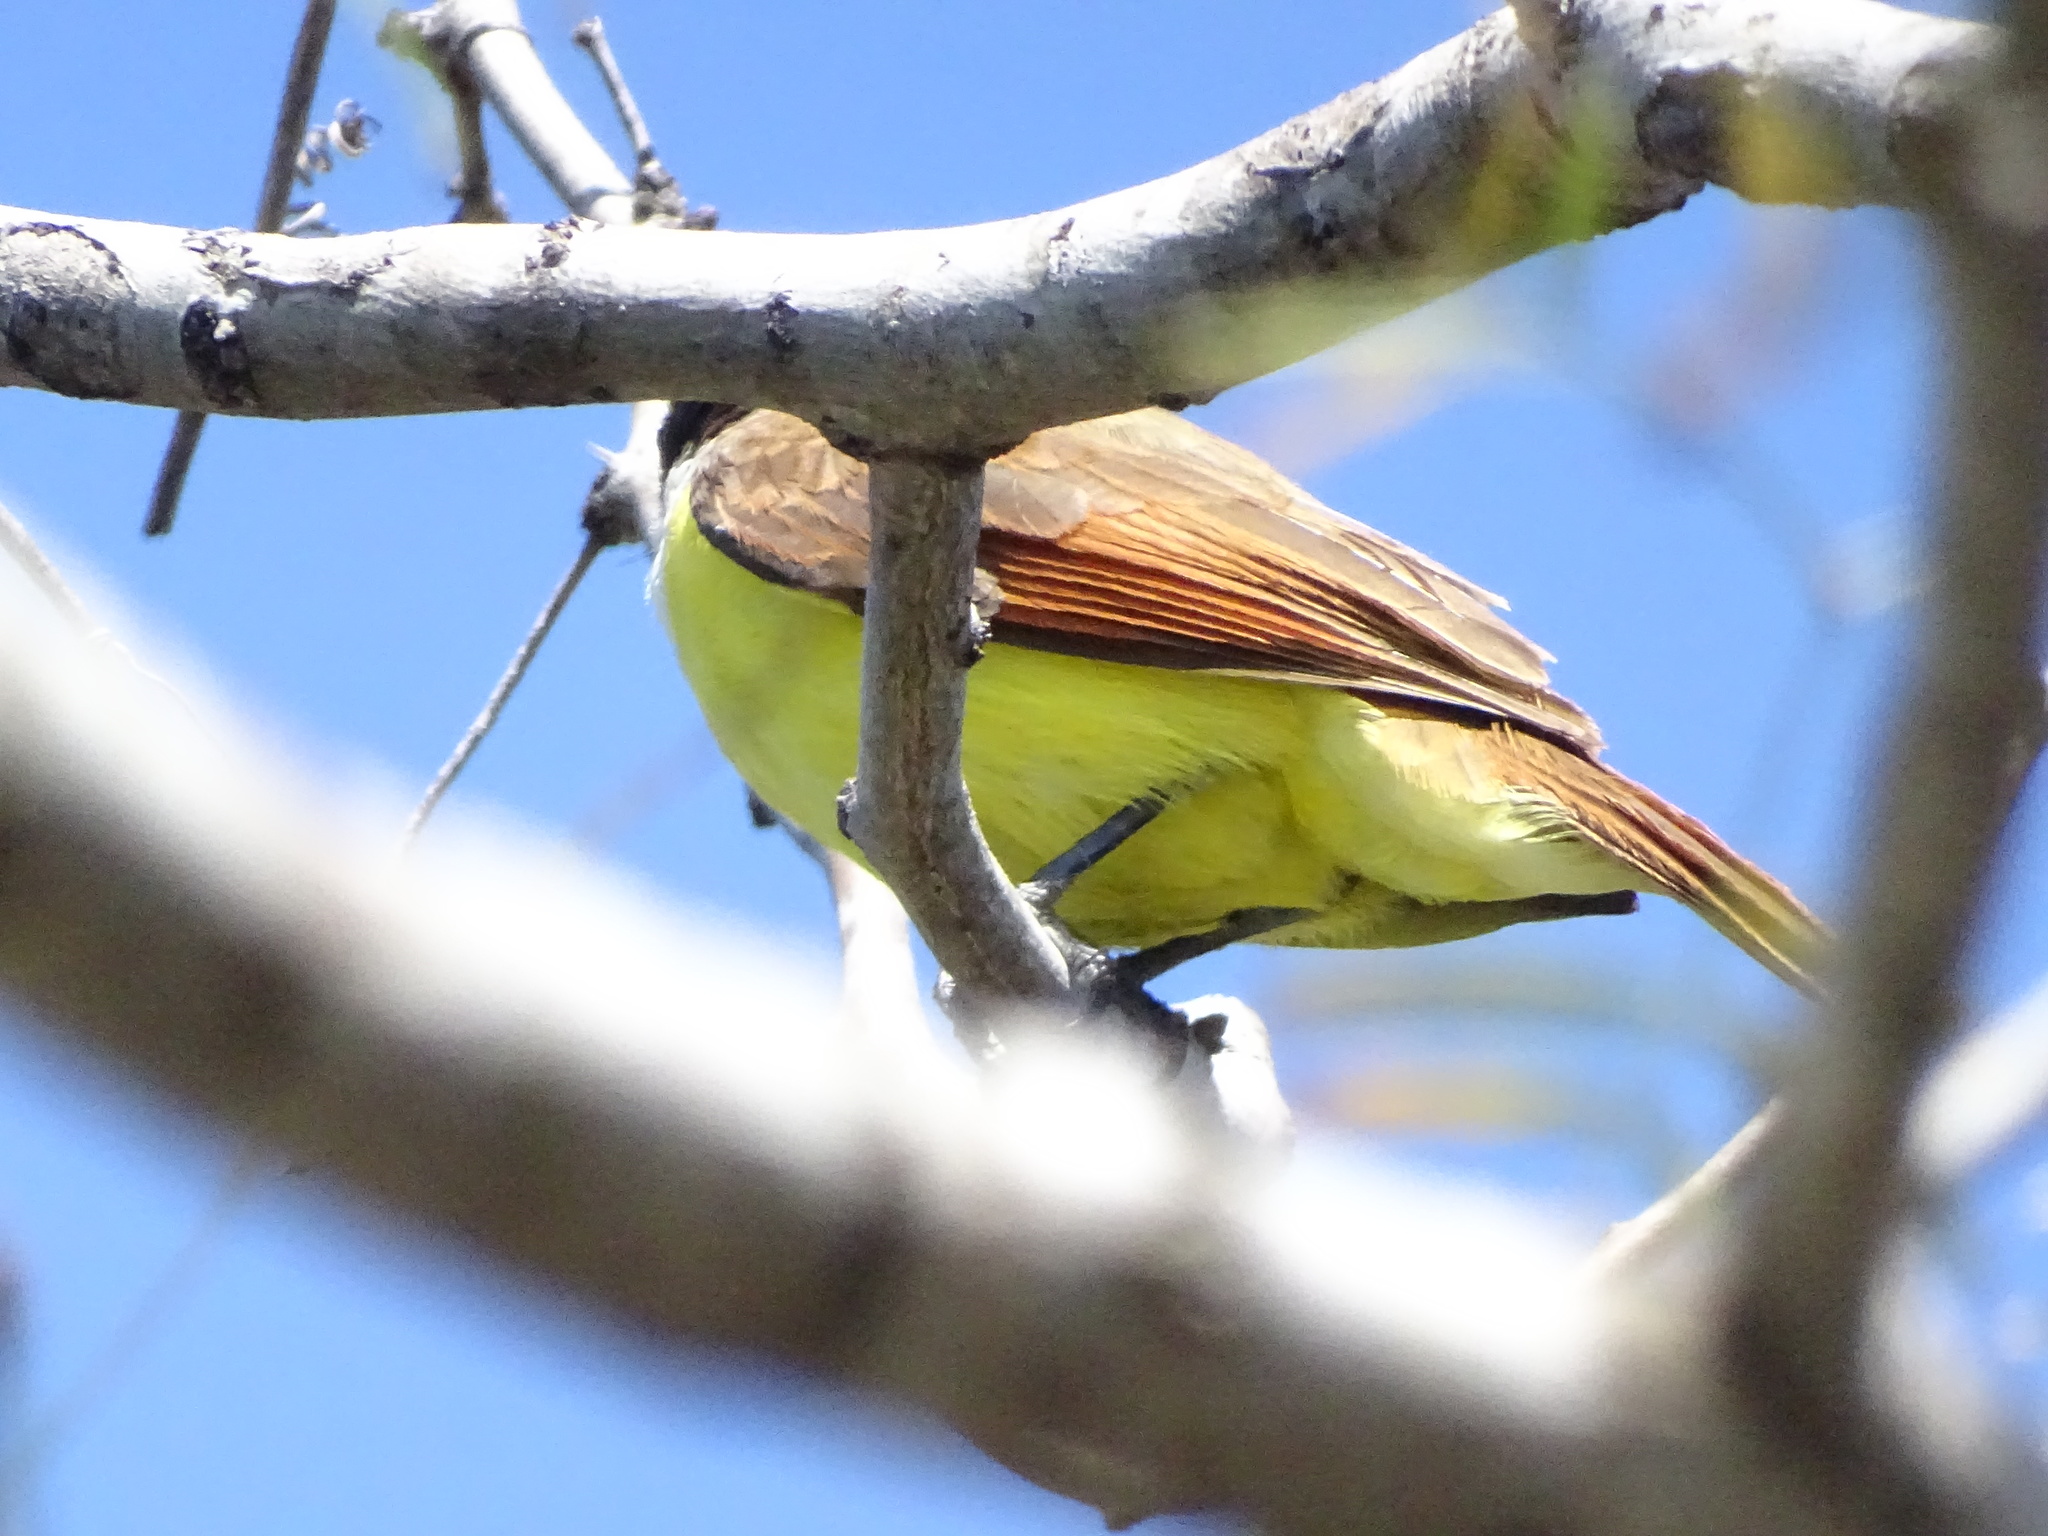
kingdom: Animalia
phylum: Chordata
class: Aves
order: Passeriformes
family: Tyrannidae
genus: Pitangus
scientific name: Pitangus sulphuratus
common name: Great kiskadee
